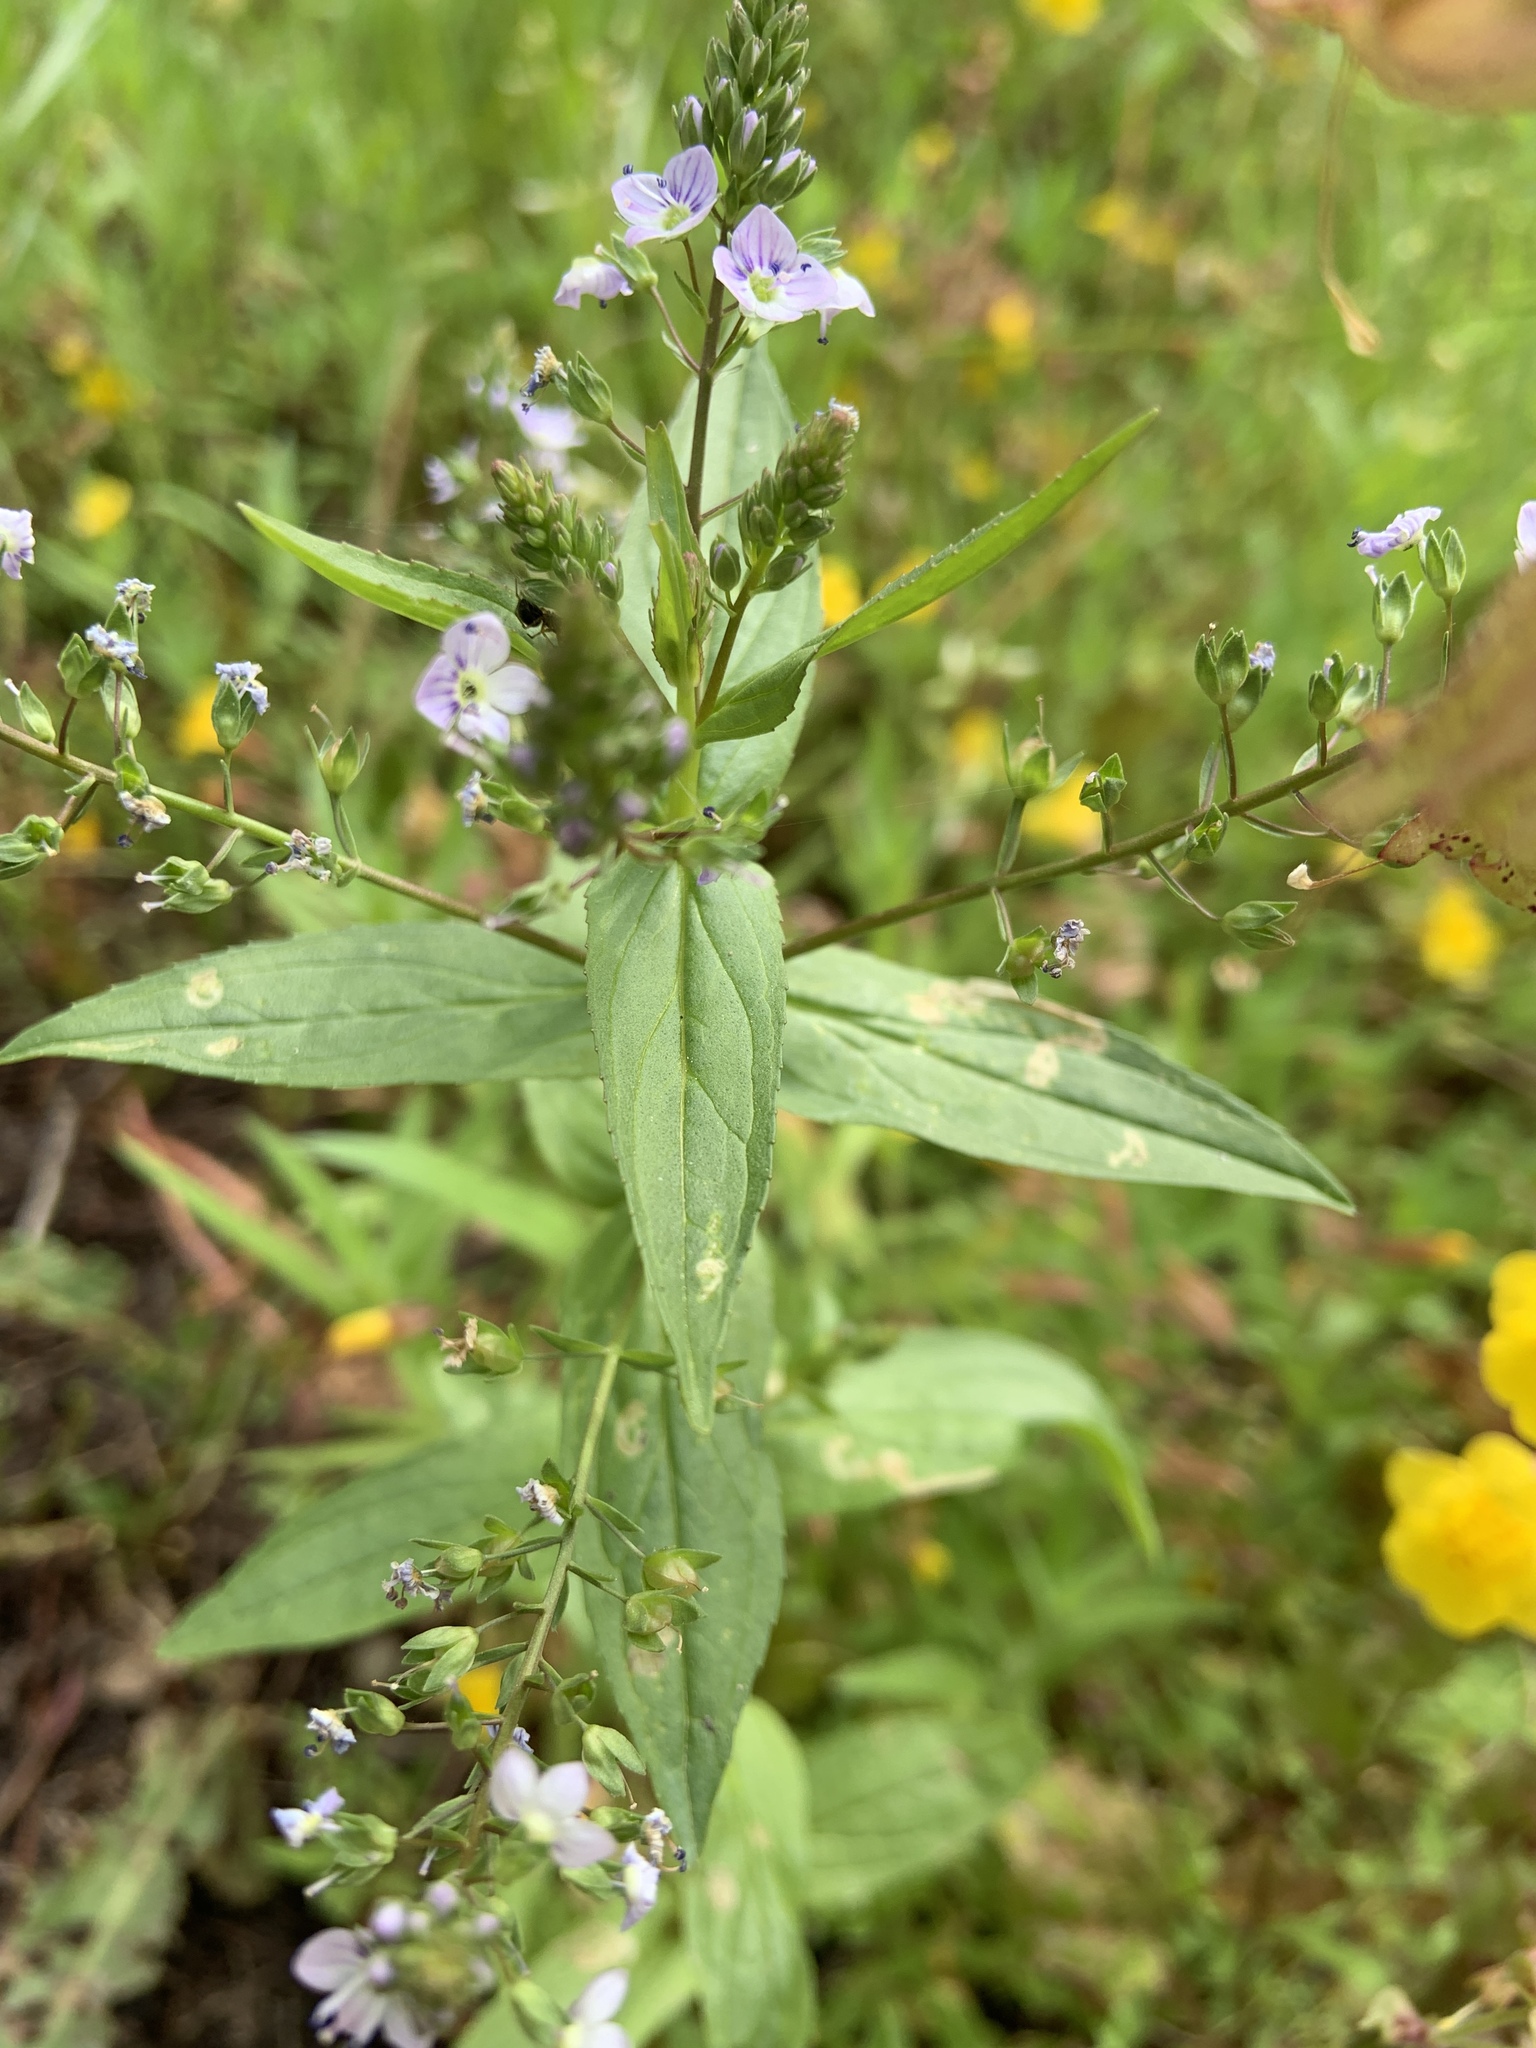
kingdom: Plantae
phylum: Tracheophyta
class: Magnoliopsida
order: Lamiales
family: Plantaginaceae
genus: Veronica
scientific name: Veronica anagallis-aquatica
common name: Water speedwell
